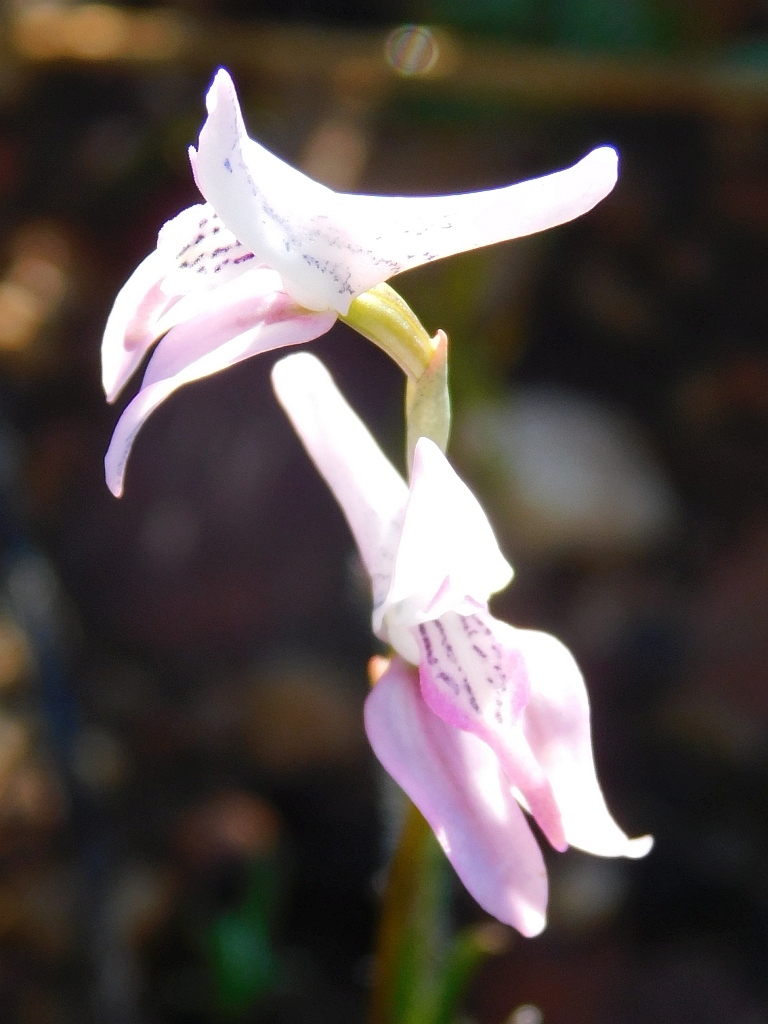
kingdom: Plantae
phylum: Tracheophyta
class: Liliopsida
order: Asparagales
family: Orchidaceae
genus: Disa
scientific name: Disa bifida
